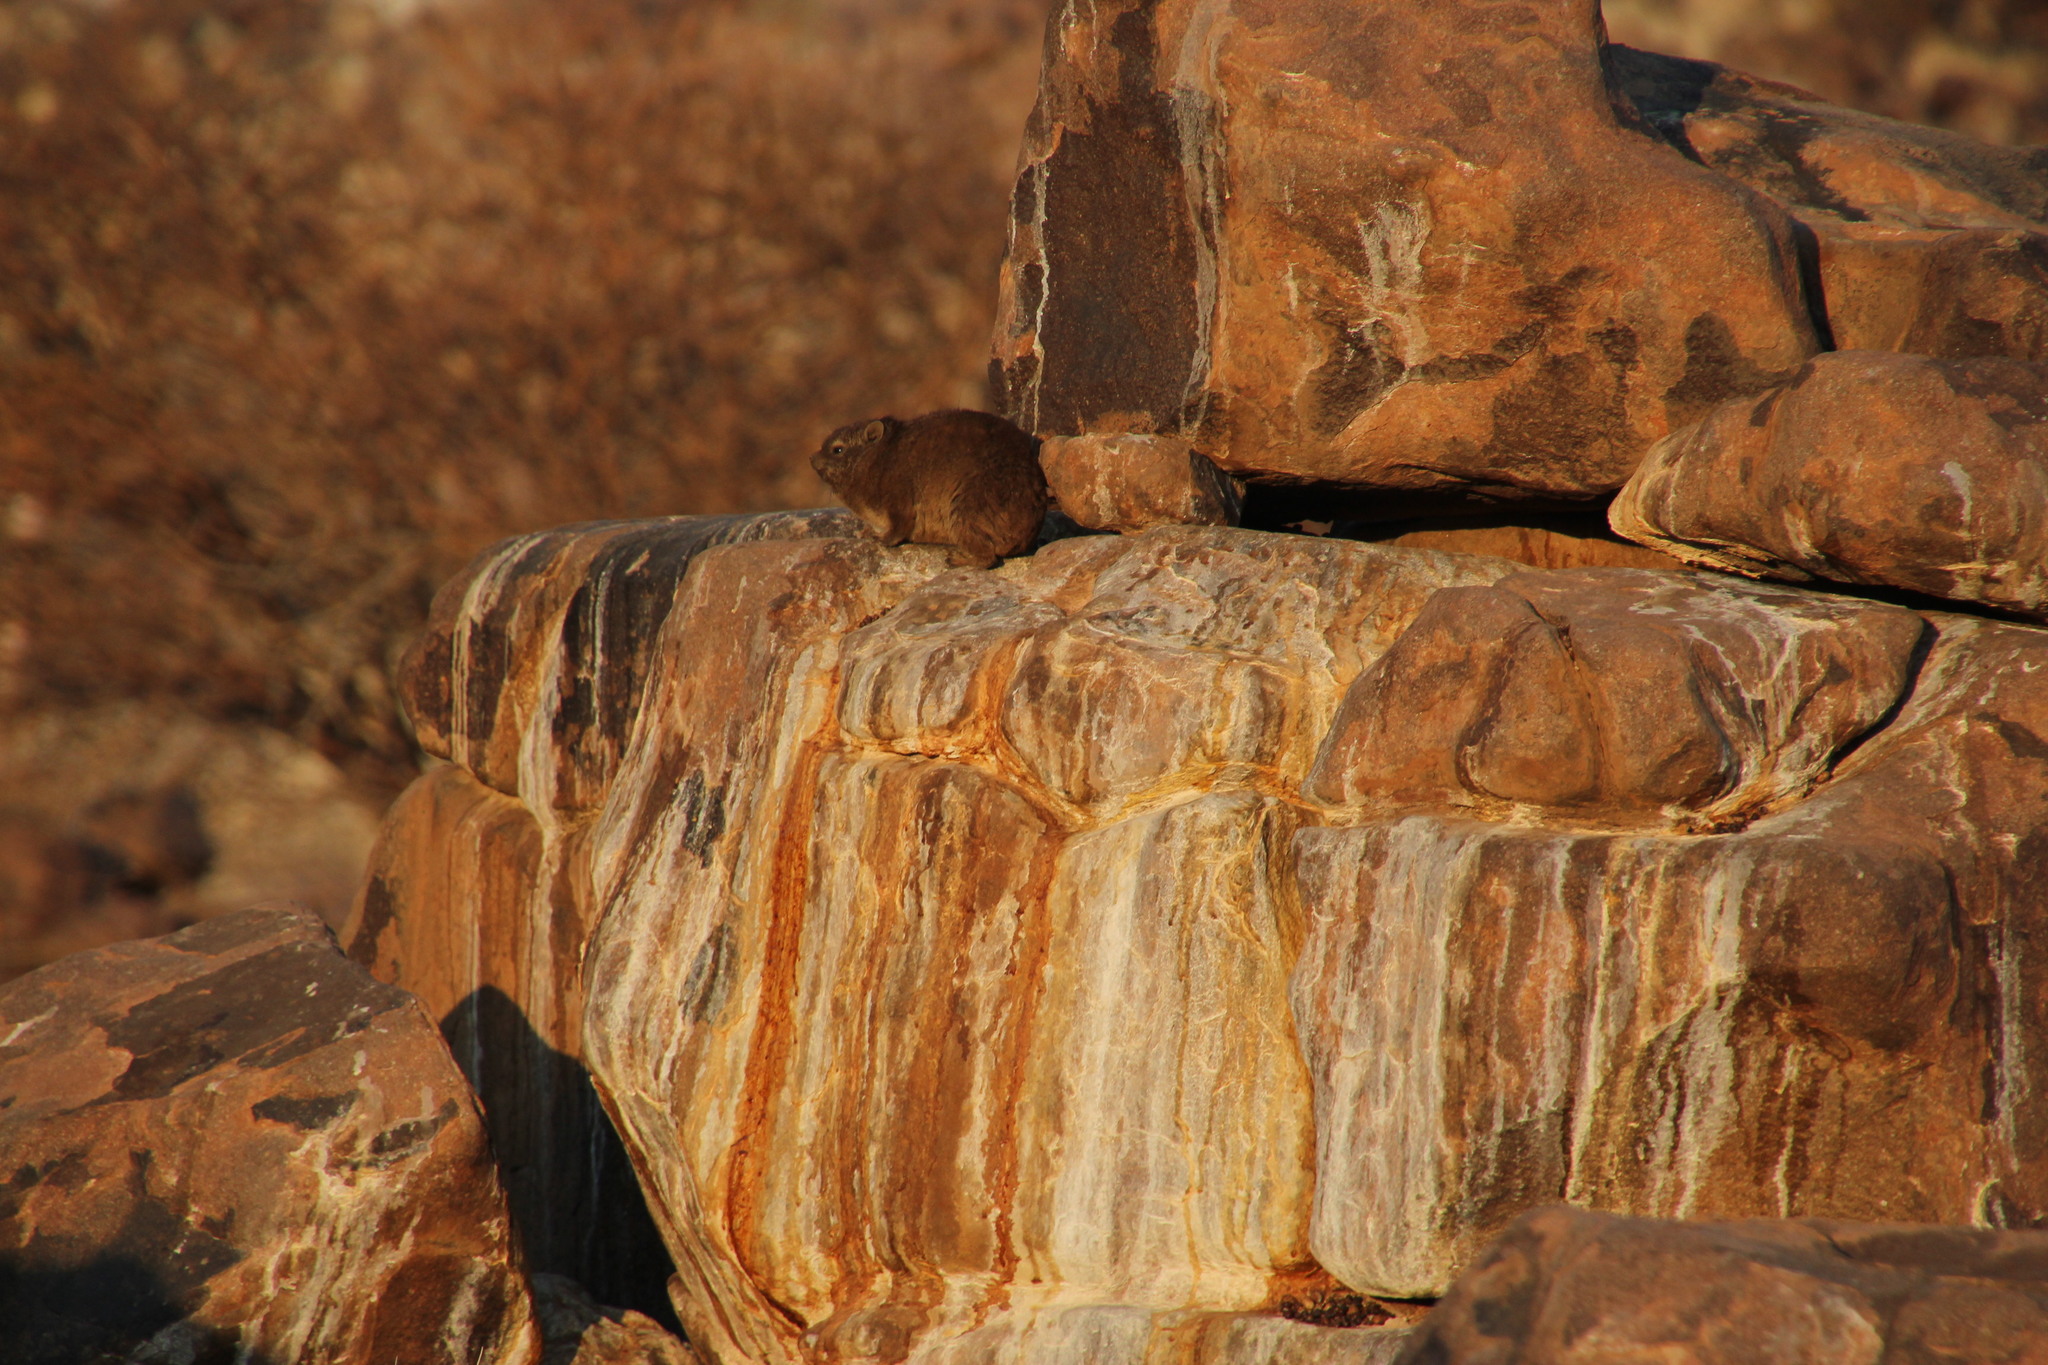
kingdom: Animalia
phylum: Chordata
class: Mammalia
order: Hyracoidea
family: Procaviidae
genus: Procavia
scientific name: Procavia capensis
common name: Rock hyrax
